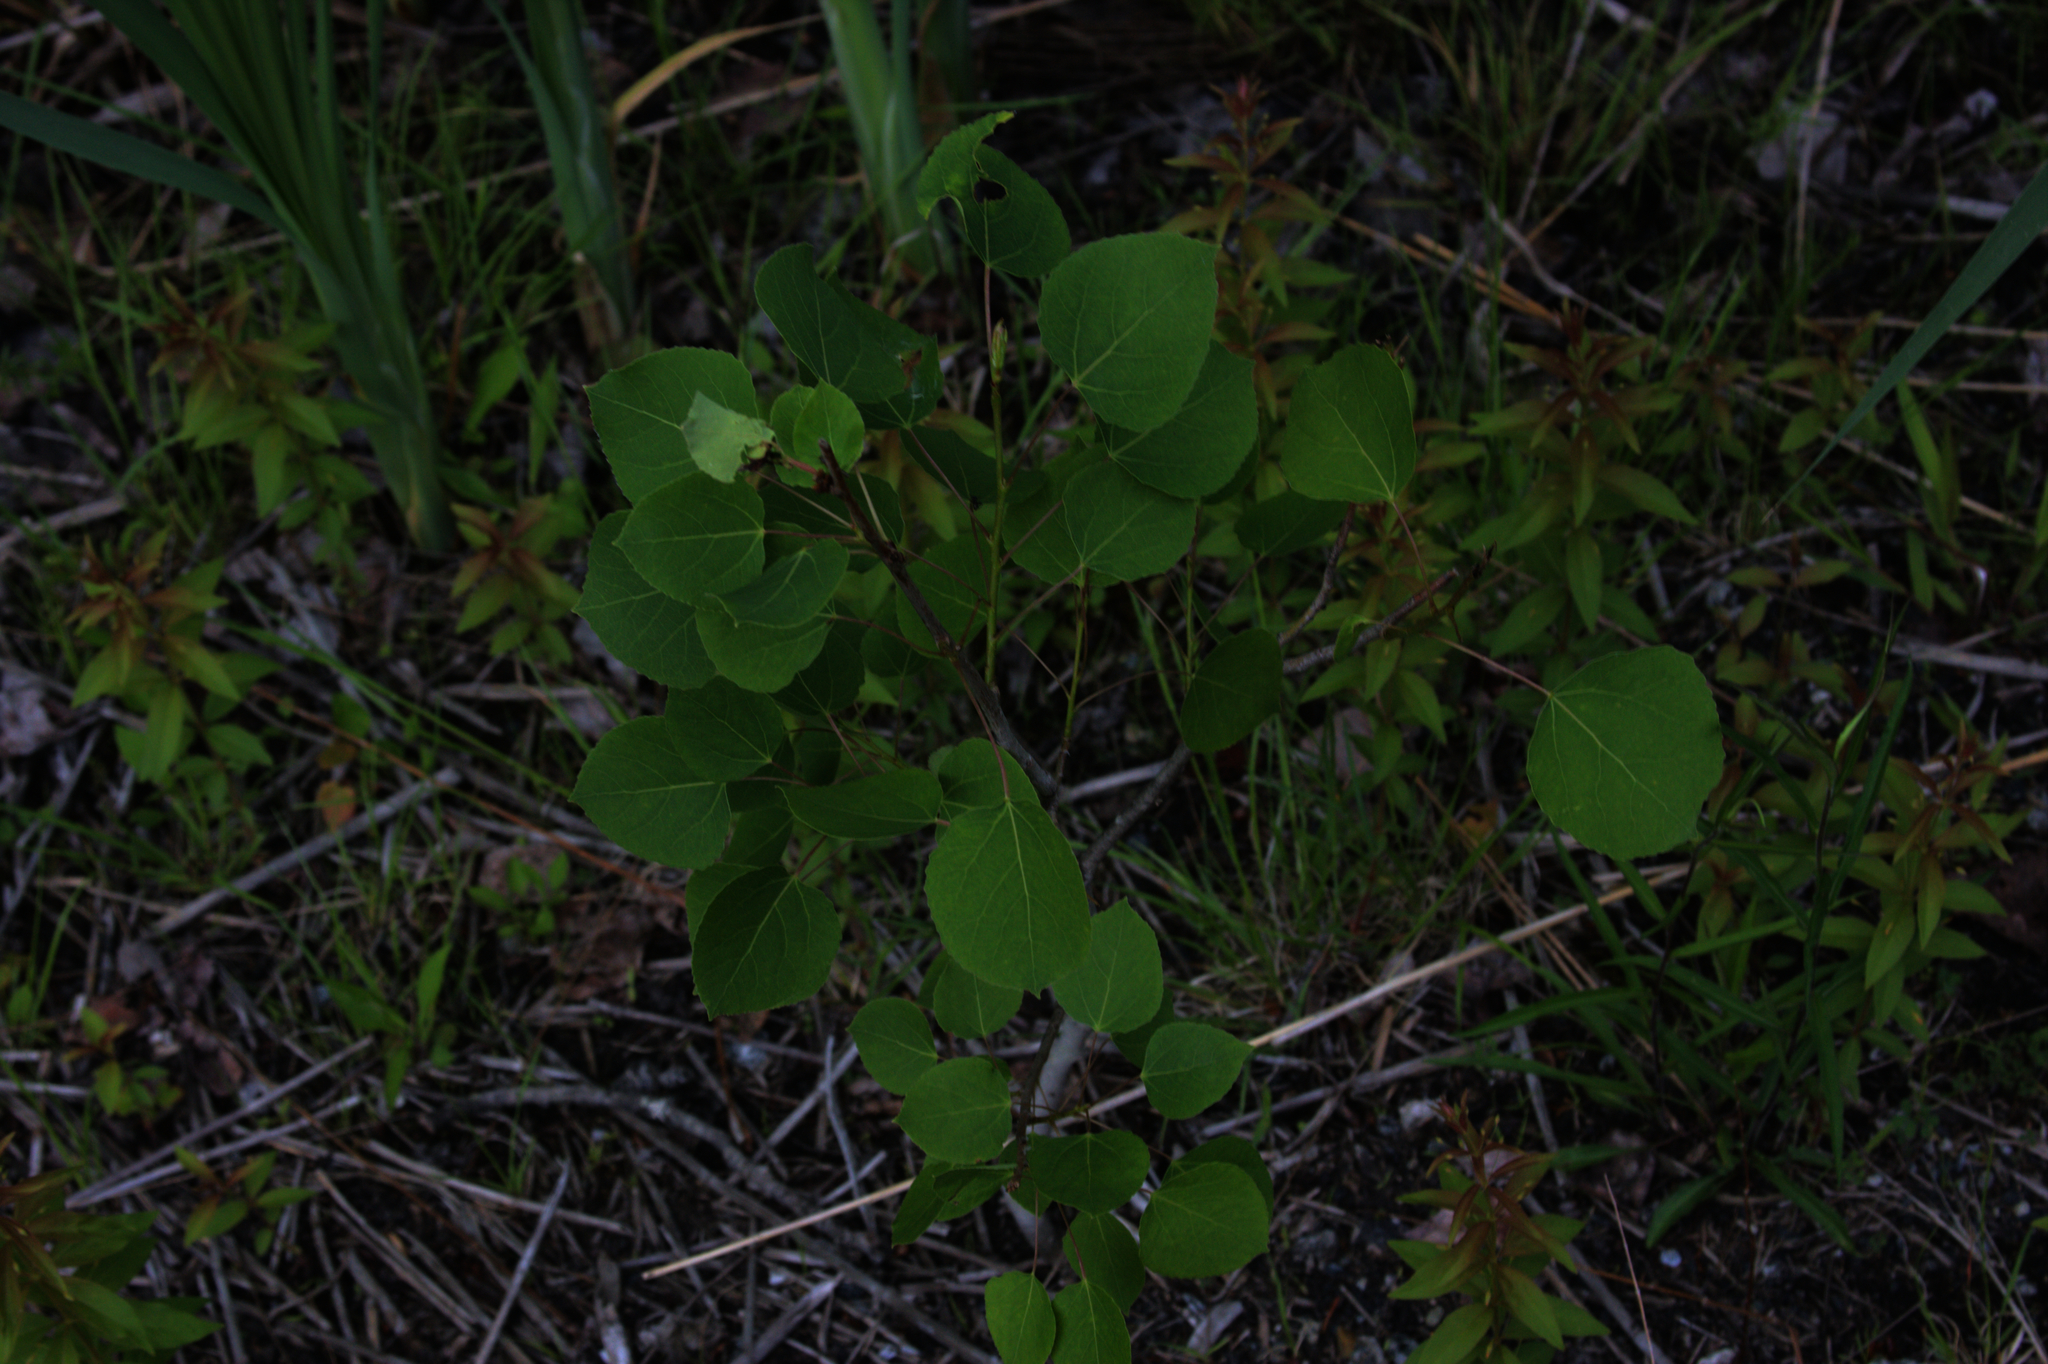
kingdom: Plantae
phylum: Tracheophyta
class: Magnoliopsida
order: Malpighiales
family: Salicaceae
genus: Populus
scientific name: Populus tremuloides
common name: Quaking aspen
